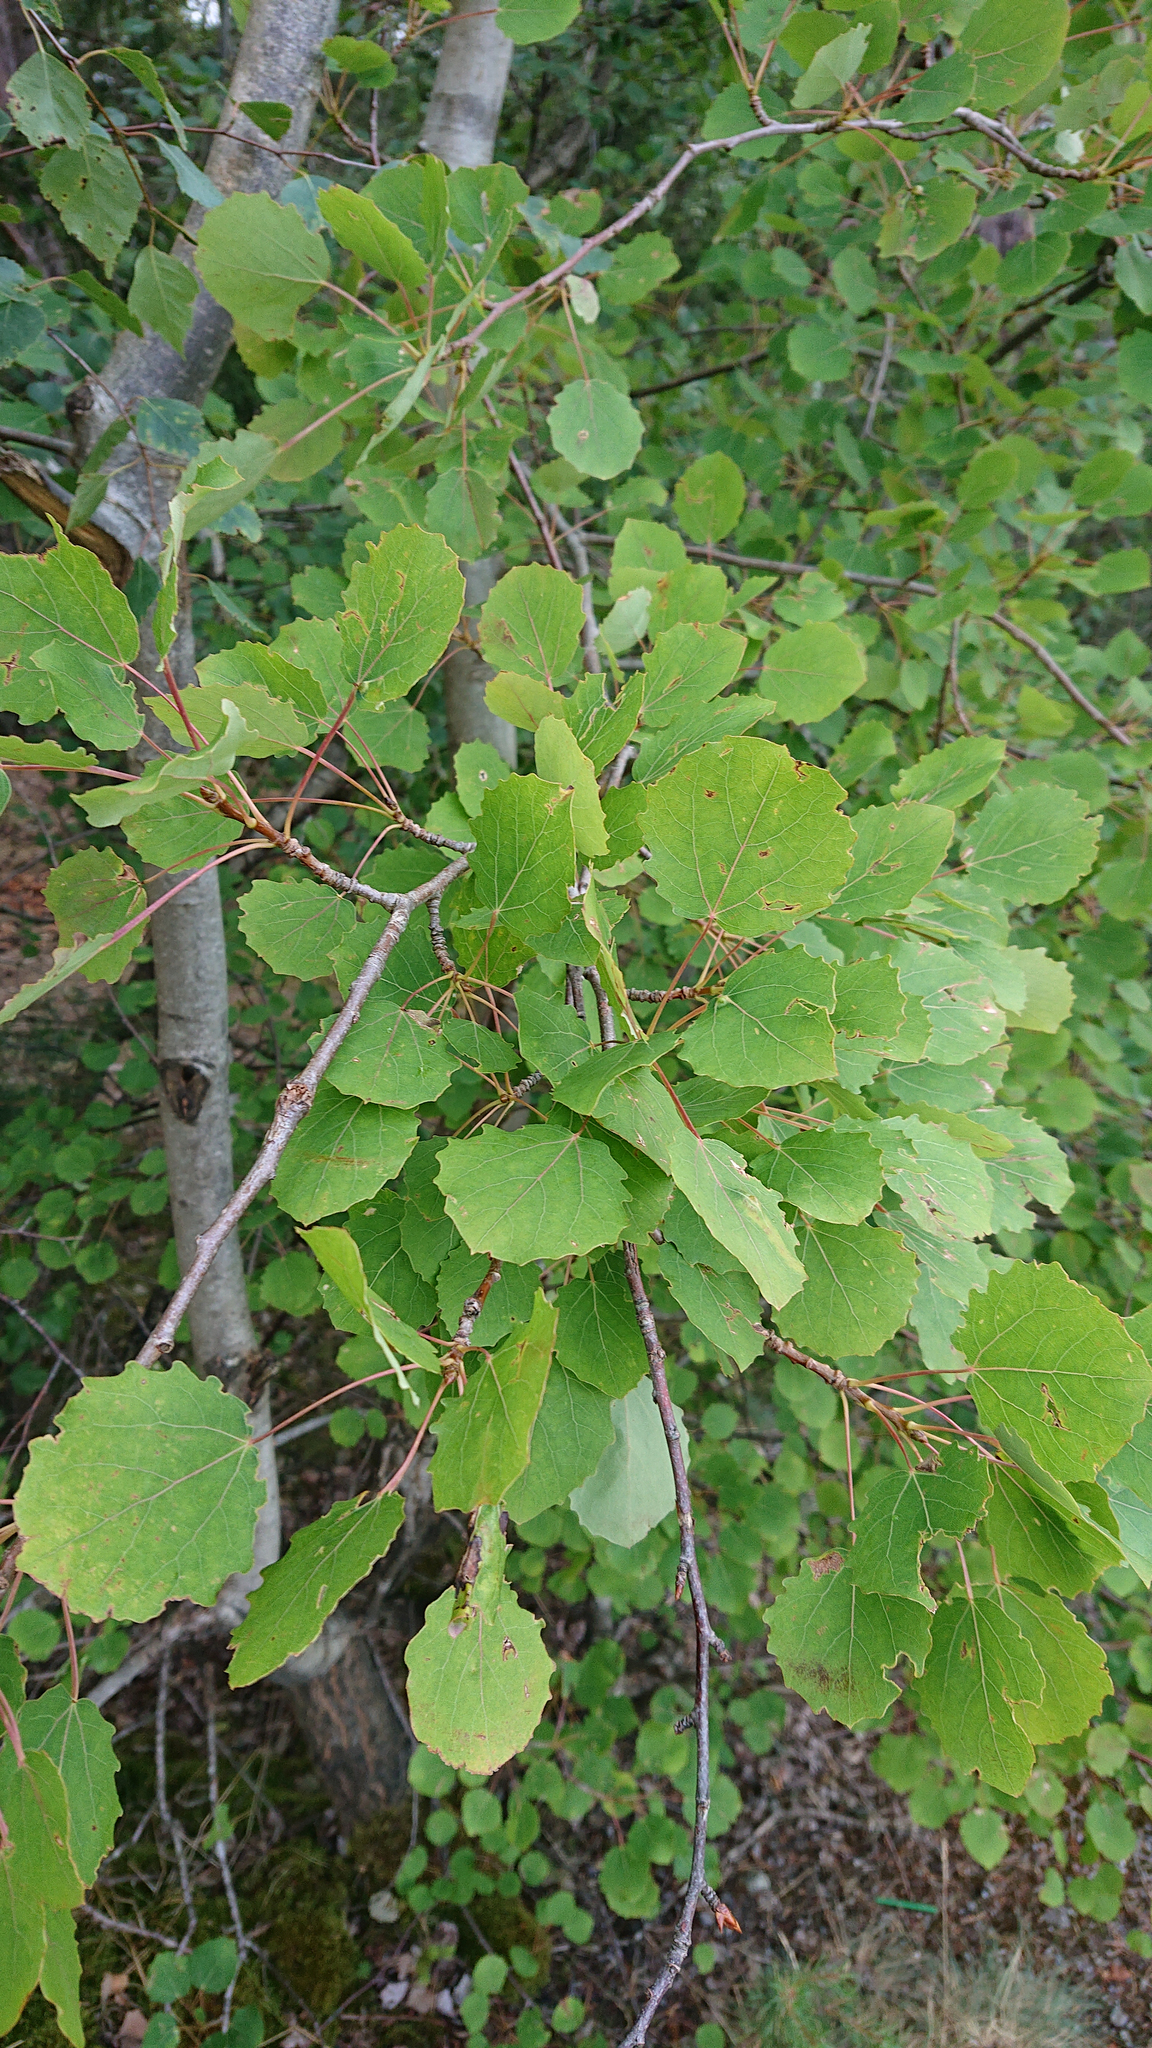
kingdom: Plantae
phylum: Tracheophyta
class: Magnoliopsida
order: Malpighiales
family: Salicaceae
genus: Populus
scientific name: Populus tremula
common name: European aspen
